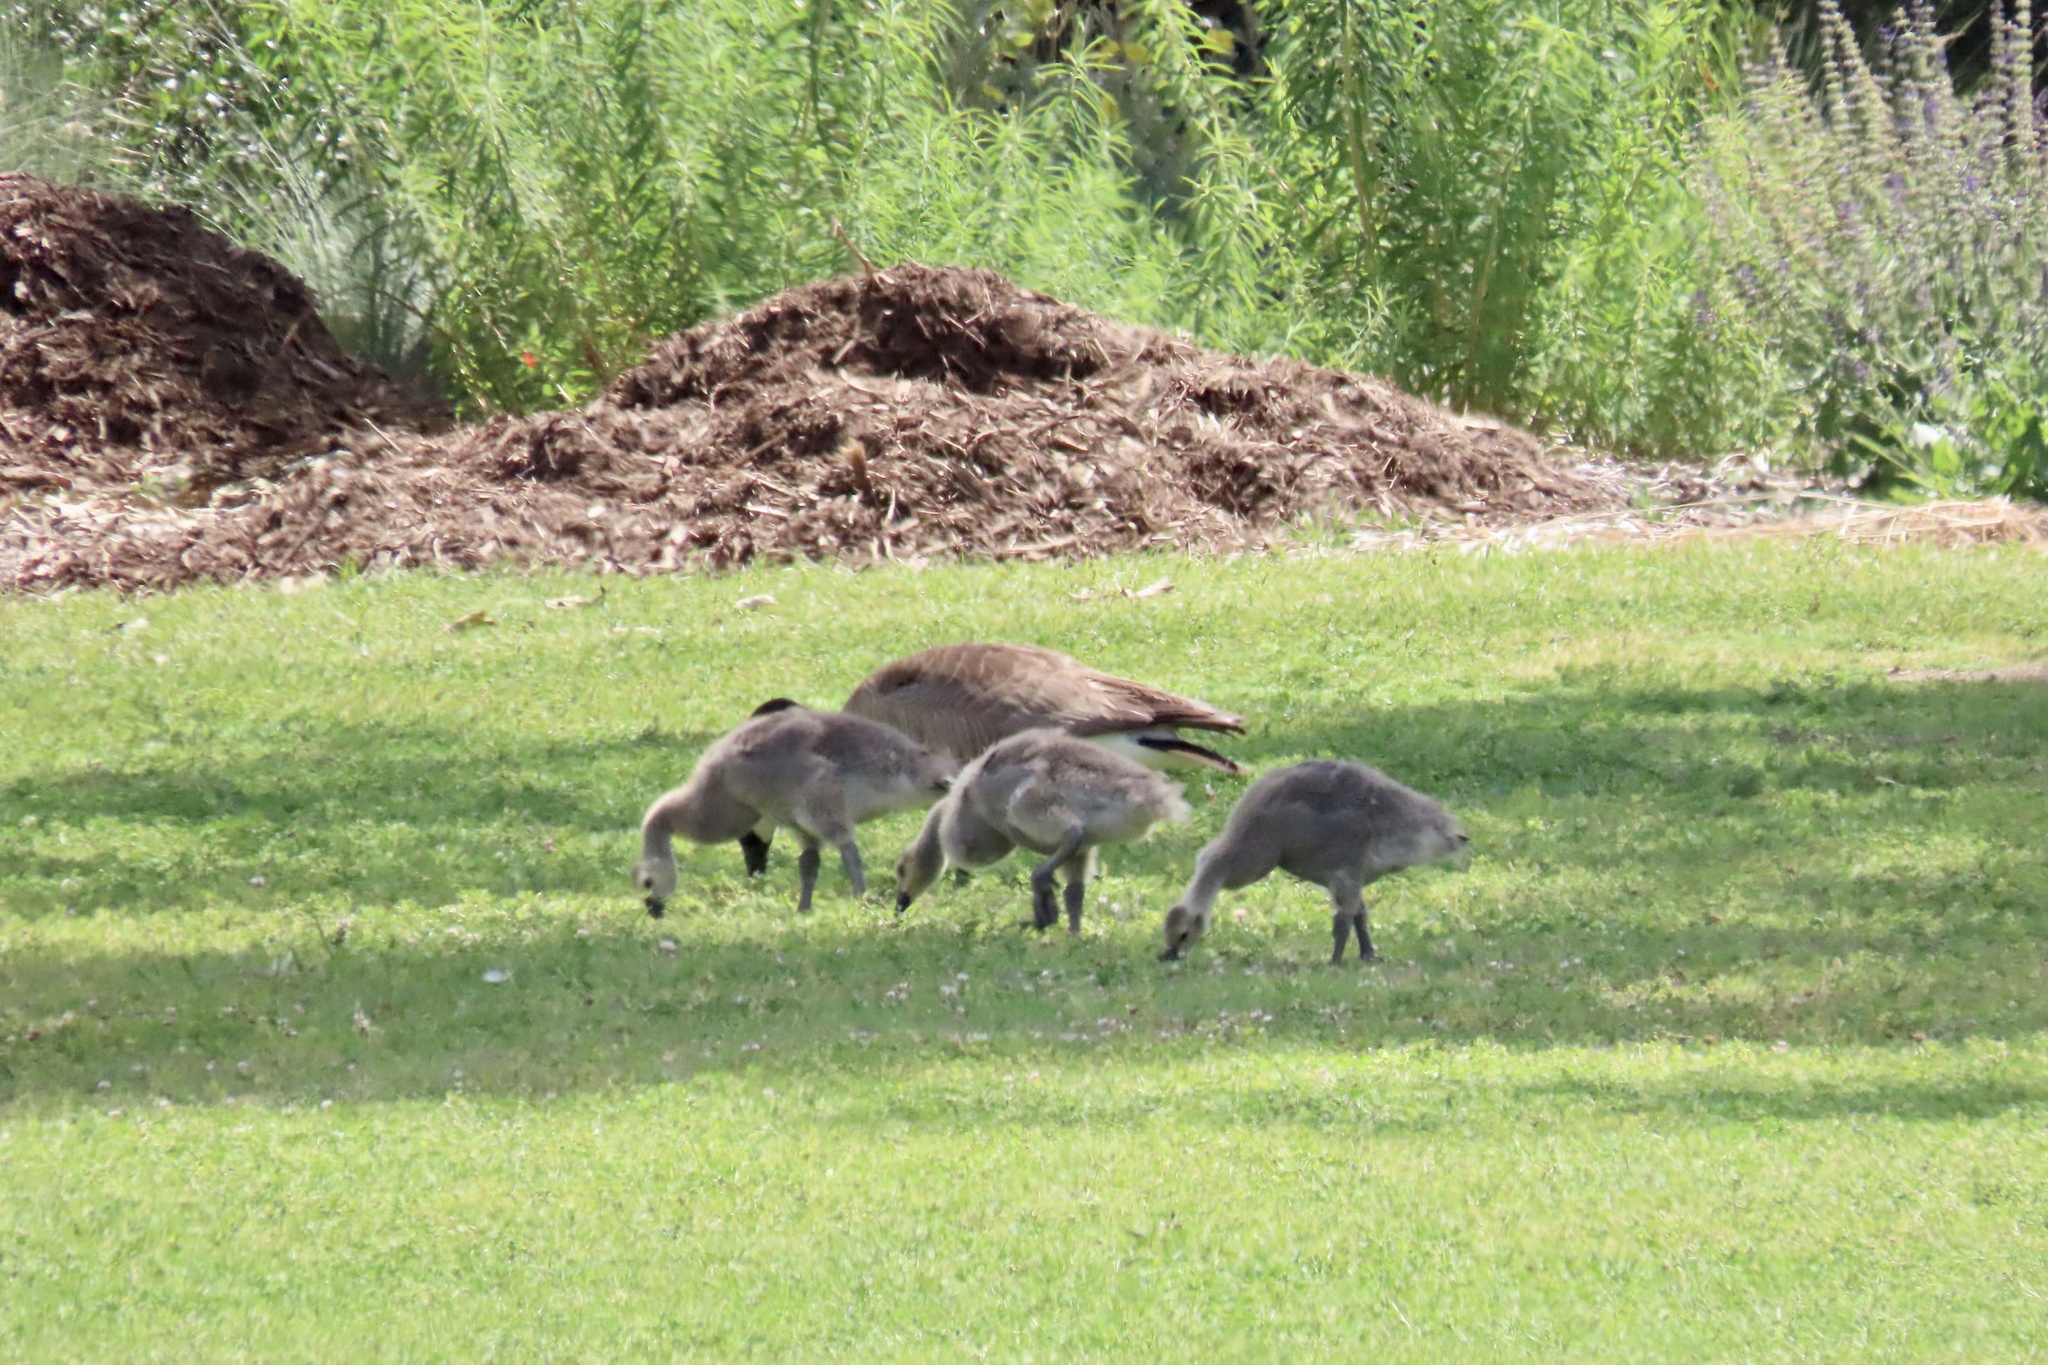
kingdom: Animalia
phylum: Chordata
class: Aves
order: Anseriformes
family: Anatidae
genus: Branta
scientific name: Branta canadensis
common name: Canada goose
